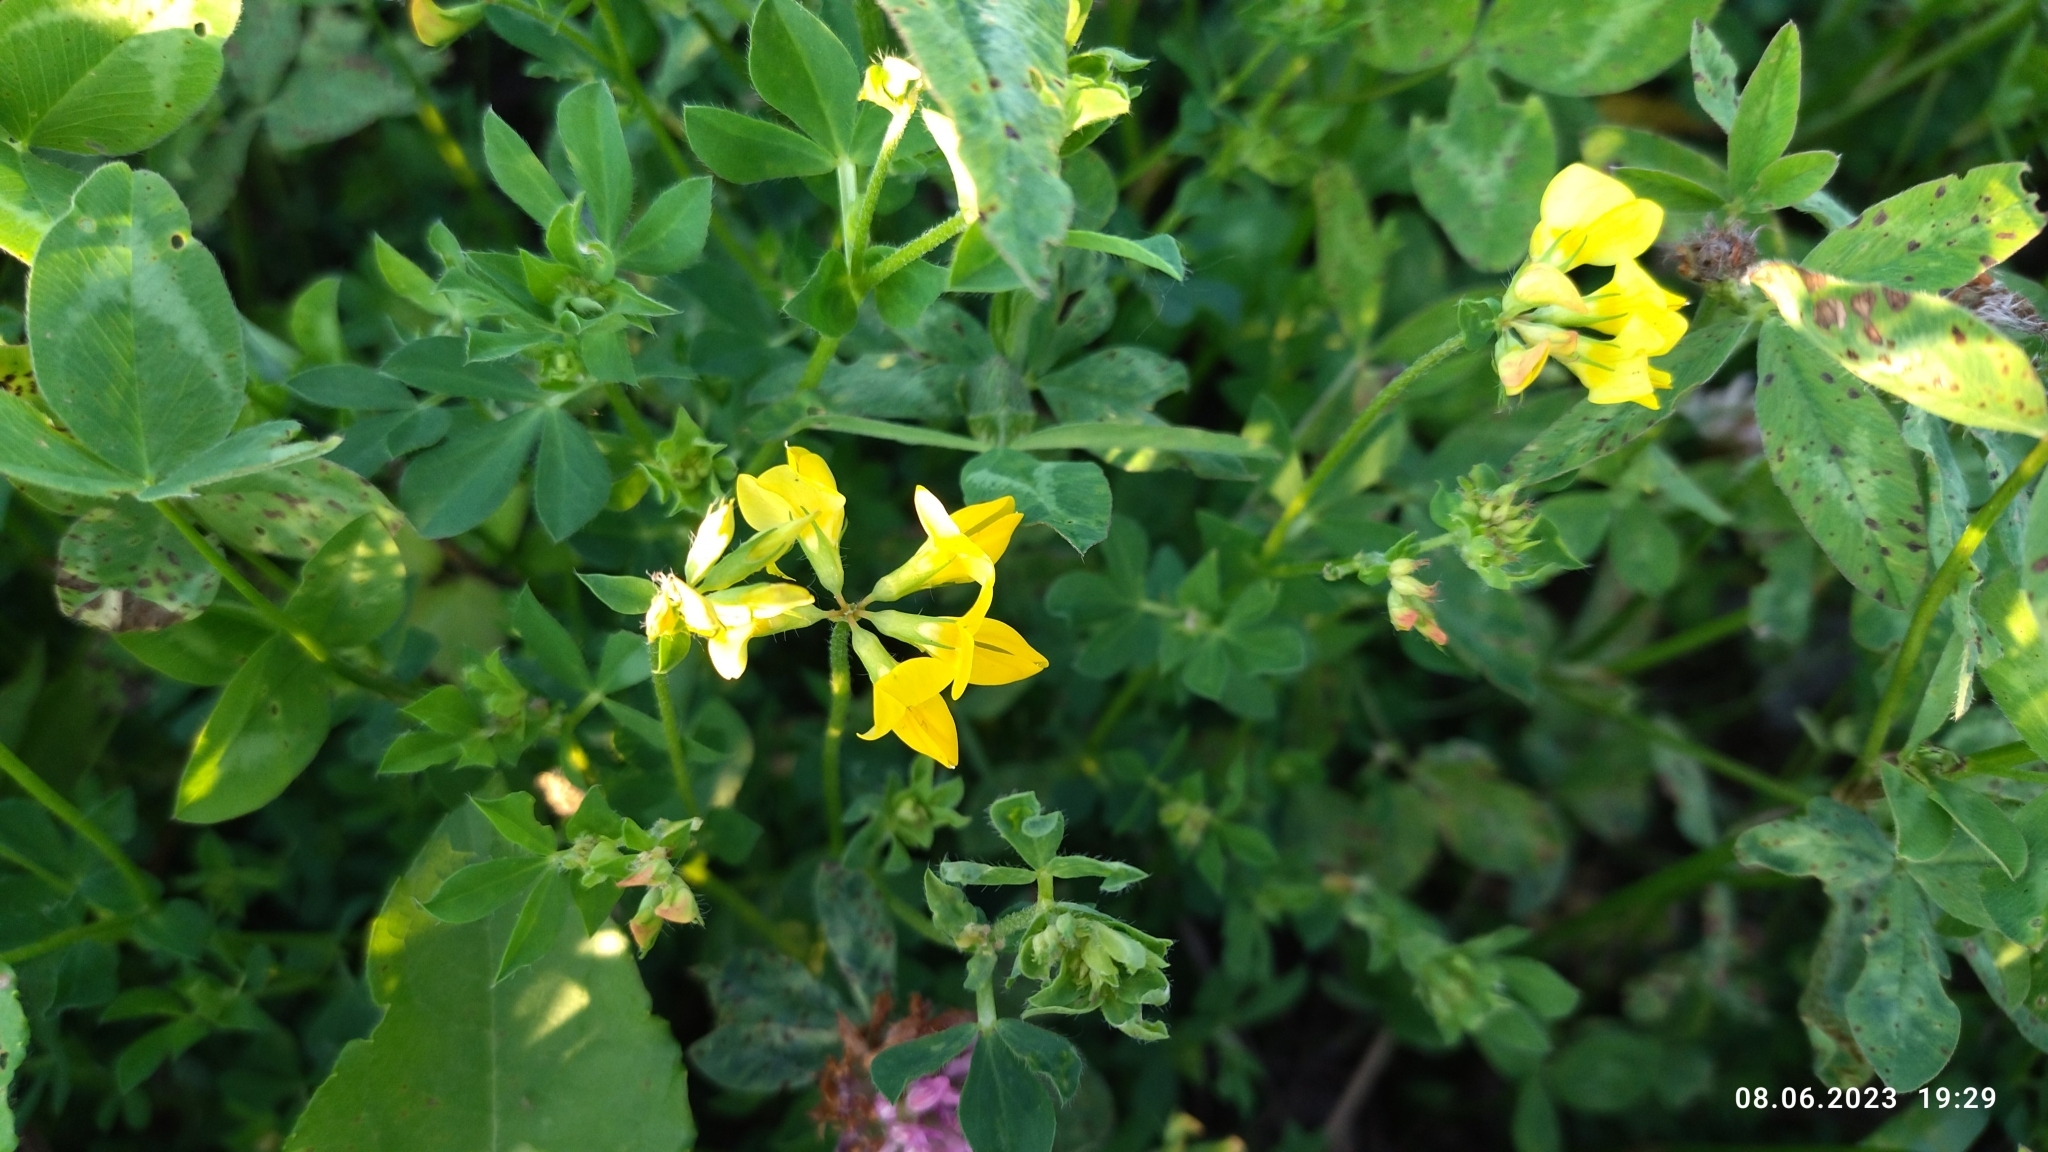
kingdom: Plantae
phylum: Tracheophyta
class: Magnoliopsida
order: Fabales
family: Fabaceae
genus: Lotus
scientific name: Lotus corniculatus
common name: Common bird's-foot-trefoil
